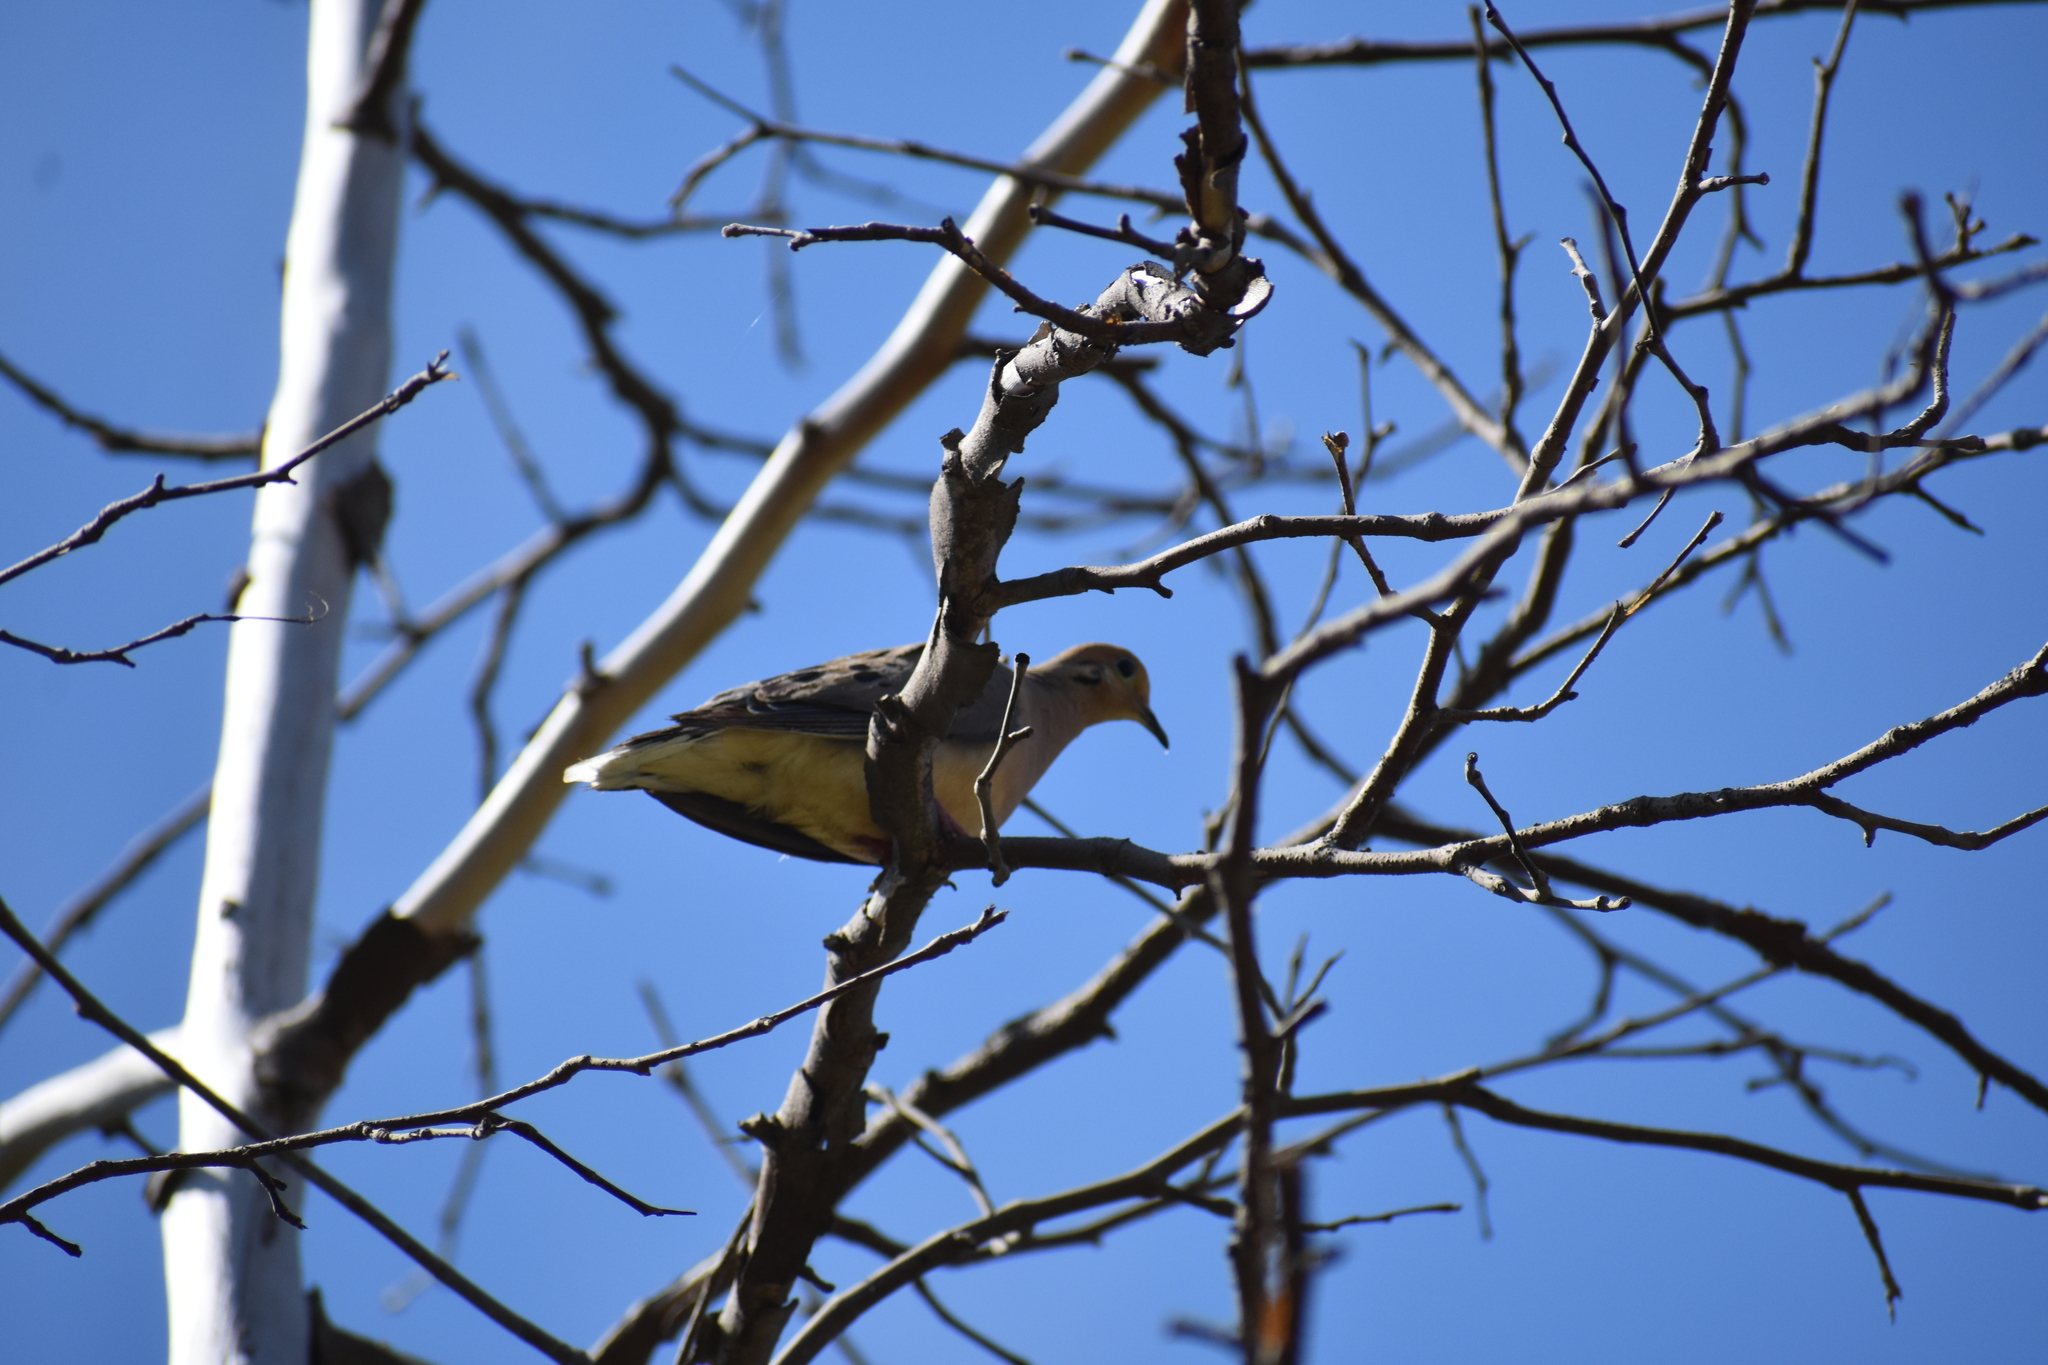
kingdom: Animalia
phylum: Chordata
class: Aves
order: Columbiformes
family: Columbidae
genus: Zenaida
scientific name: Zenaida macroura
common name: Mourning dove
